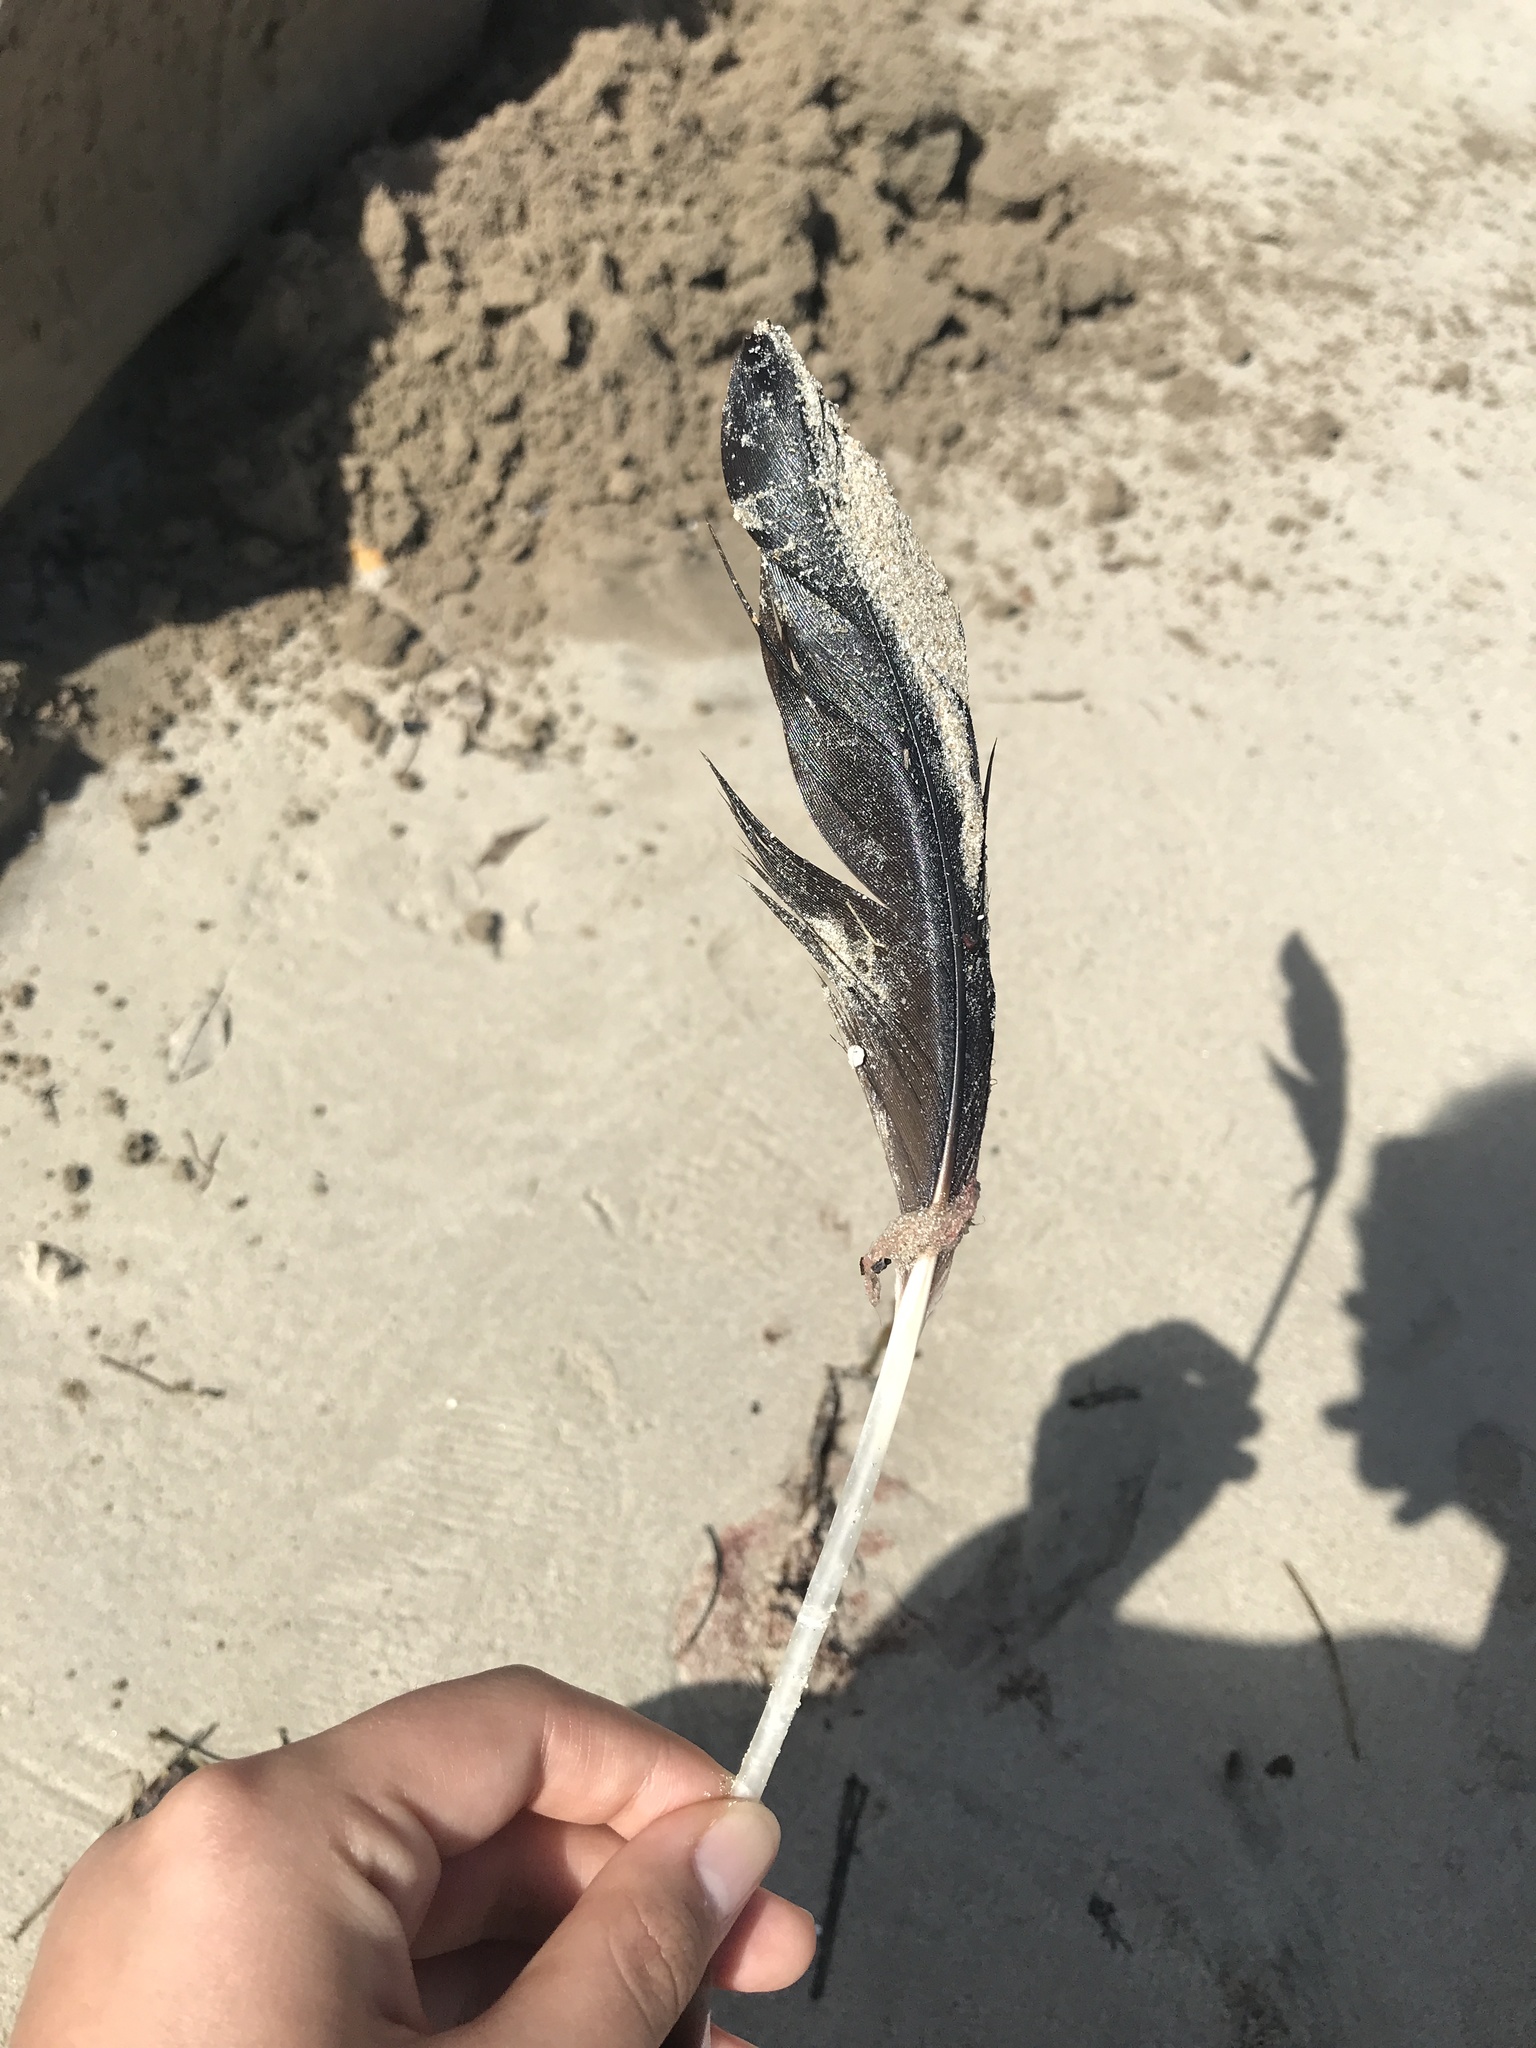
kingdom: Animalia
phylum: Chordata
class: Aves
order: Suliformes
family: Fregatidae
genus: Fregata
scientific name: Fregata magnificens
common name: Magnificent frigatebird
